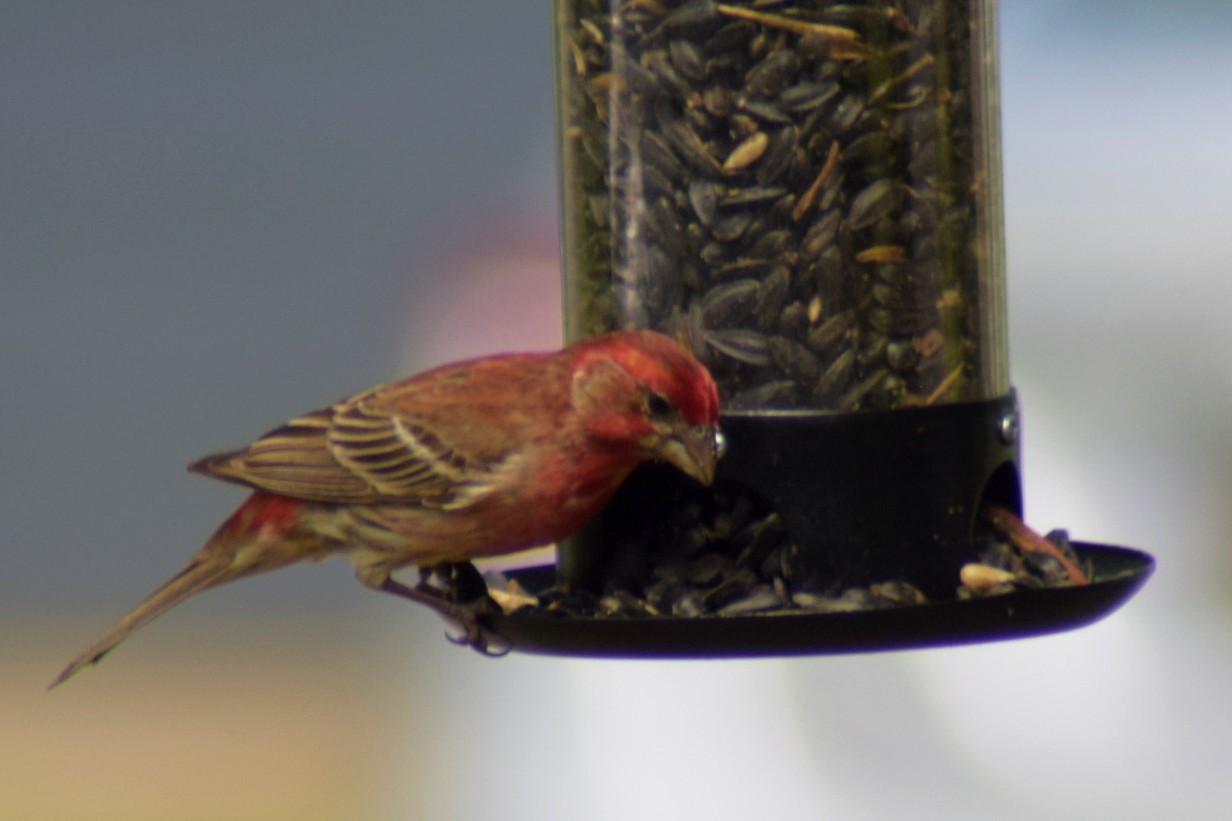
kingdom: Animalia
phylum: Chordata
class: Aves
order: Passeriformes
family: Fringillidae
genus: Haemorhous
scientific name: Haemorhous mexicanus
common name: House finch
